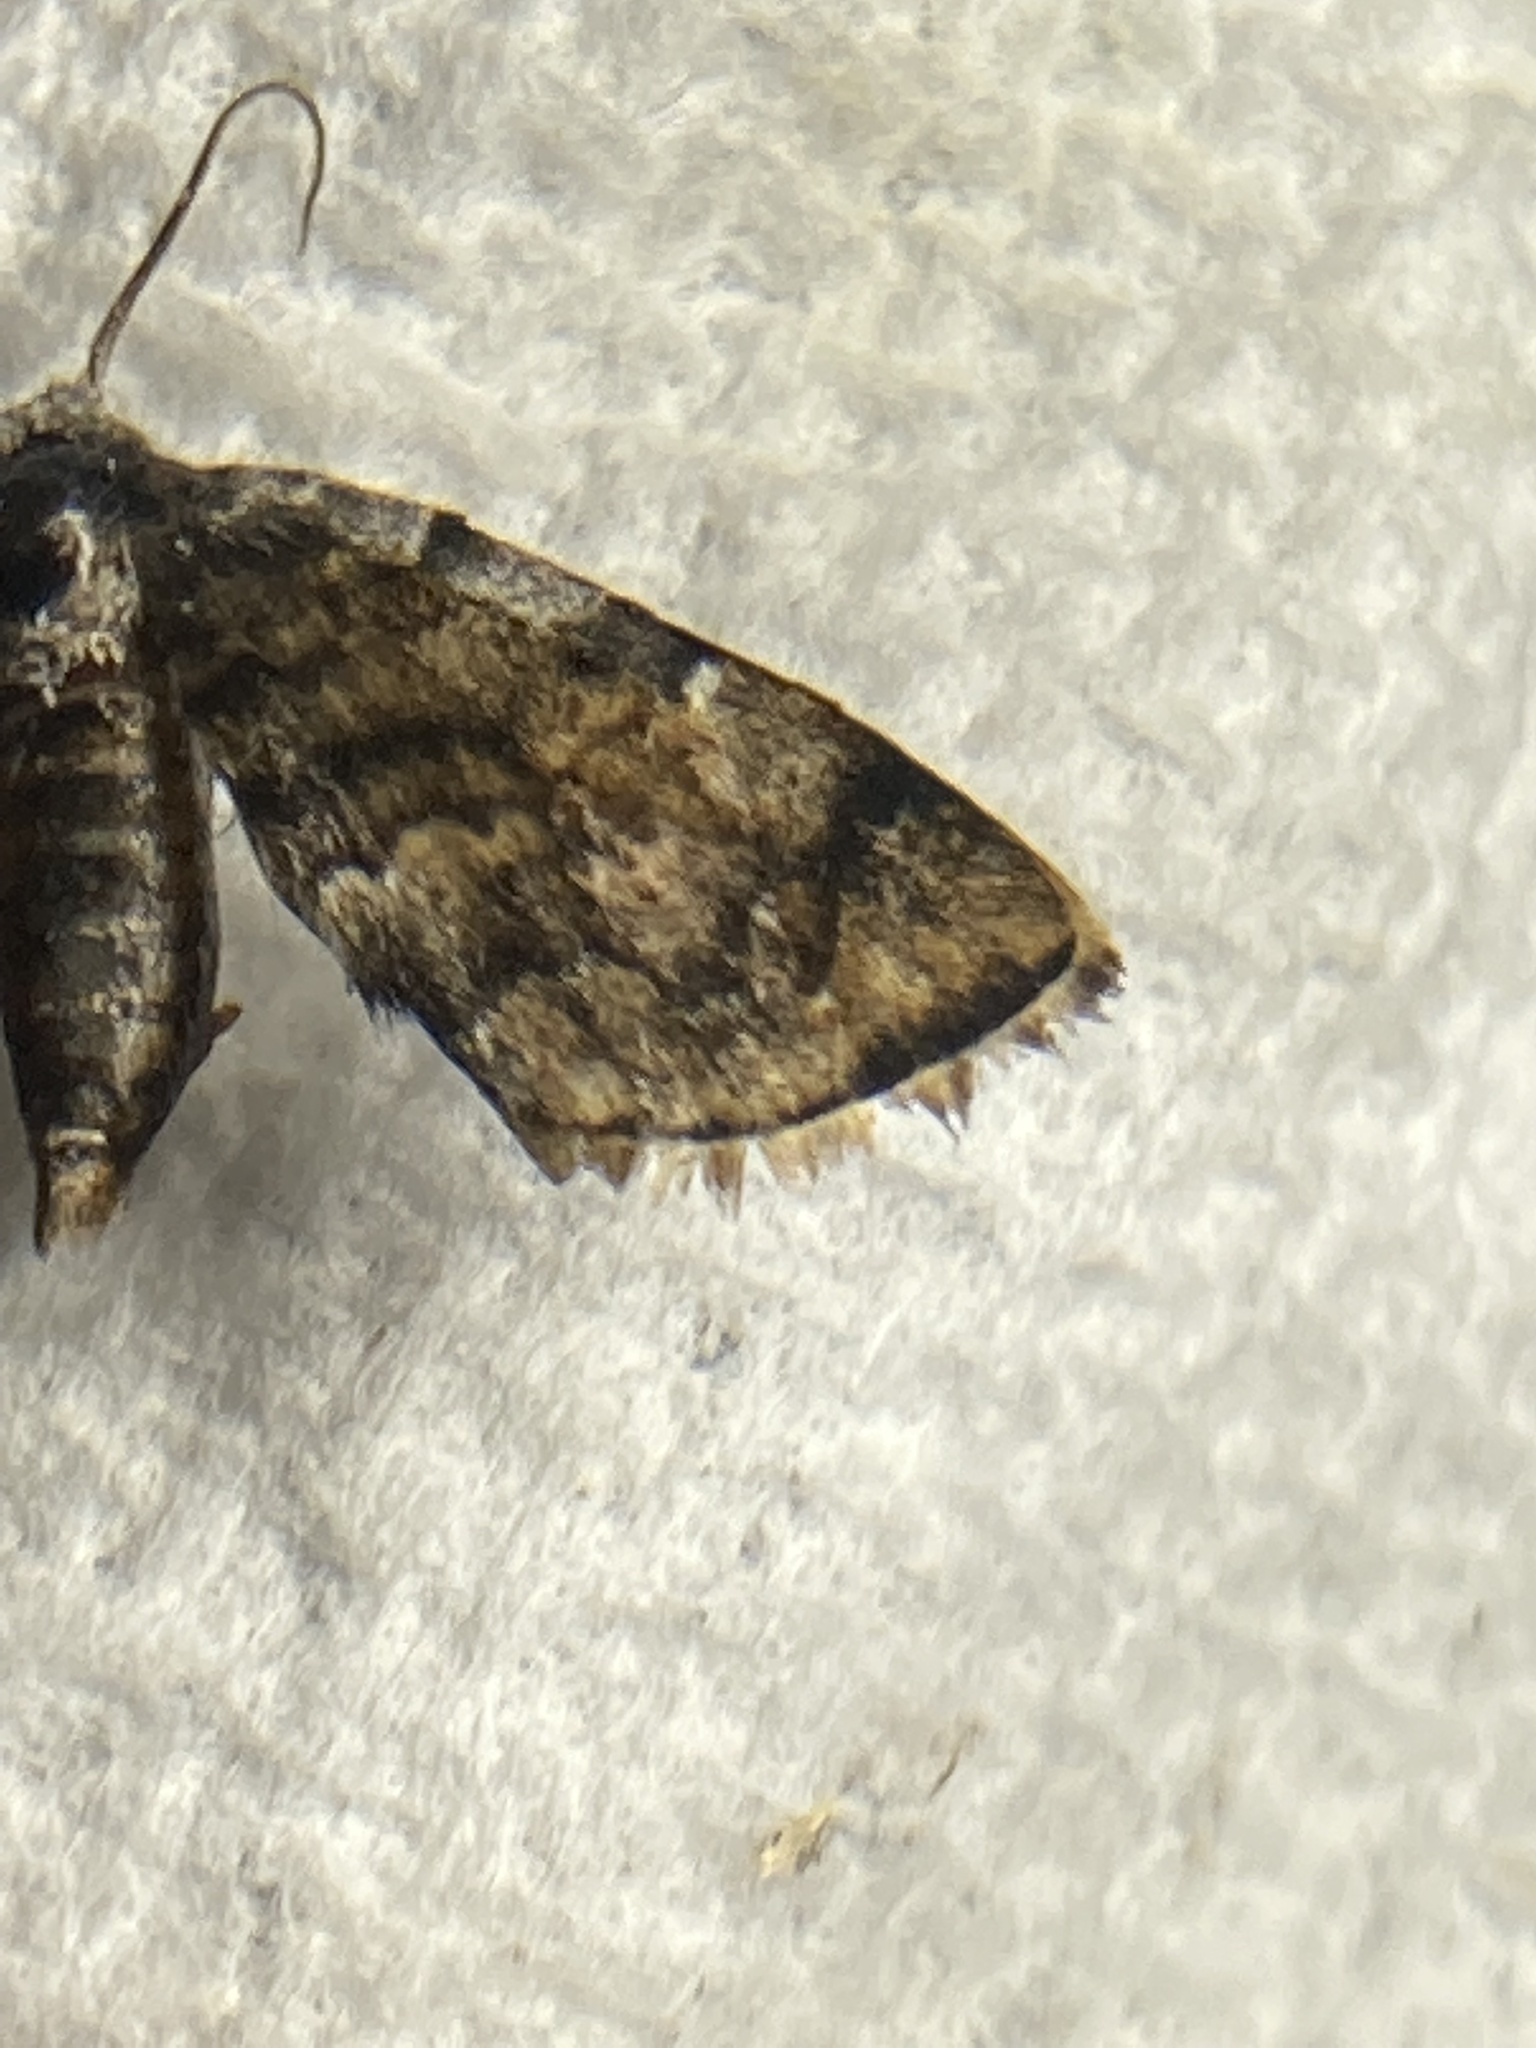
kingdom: Animalia
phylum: Arthropoda
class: Insecta
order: Lepidoptera
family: Erebidae
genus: Idia
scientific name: Idia americalis
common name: American idia moth
